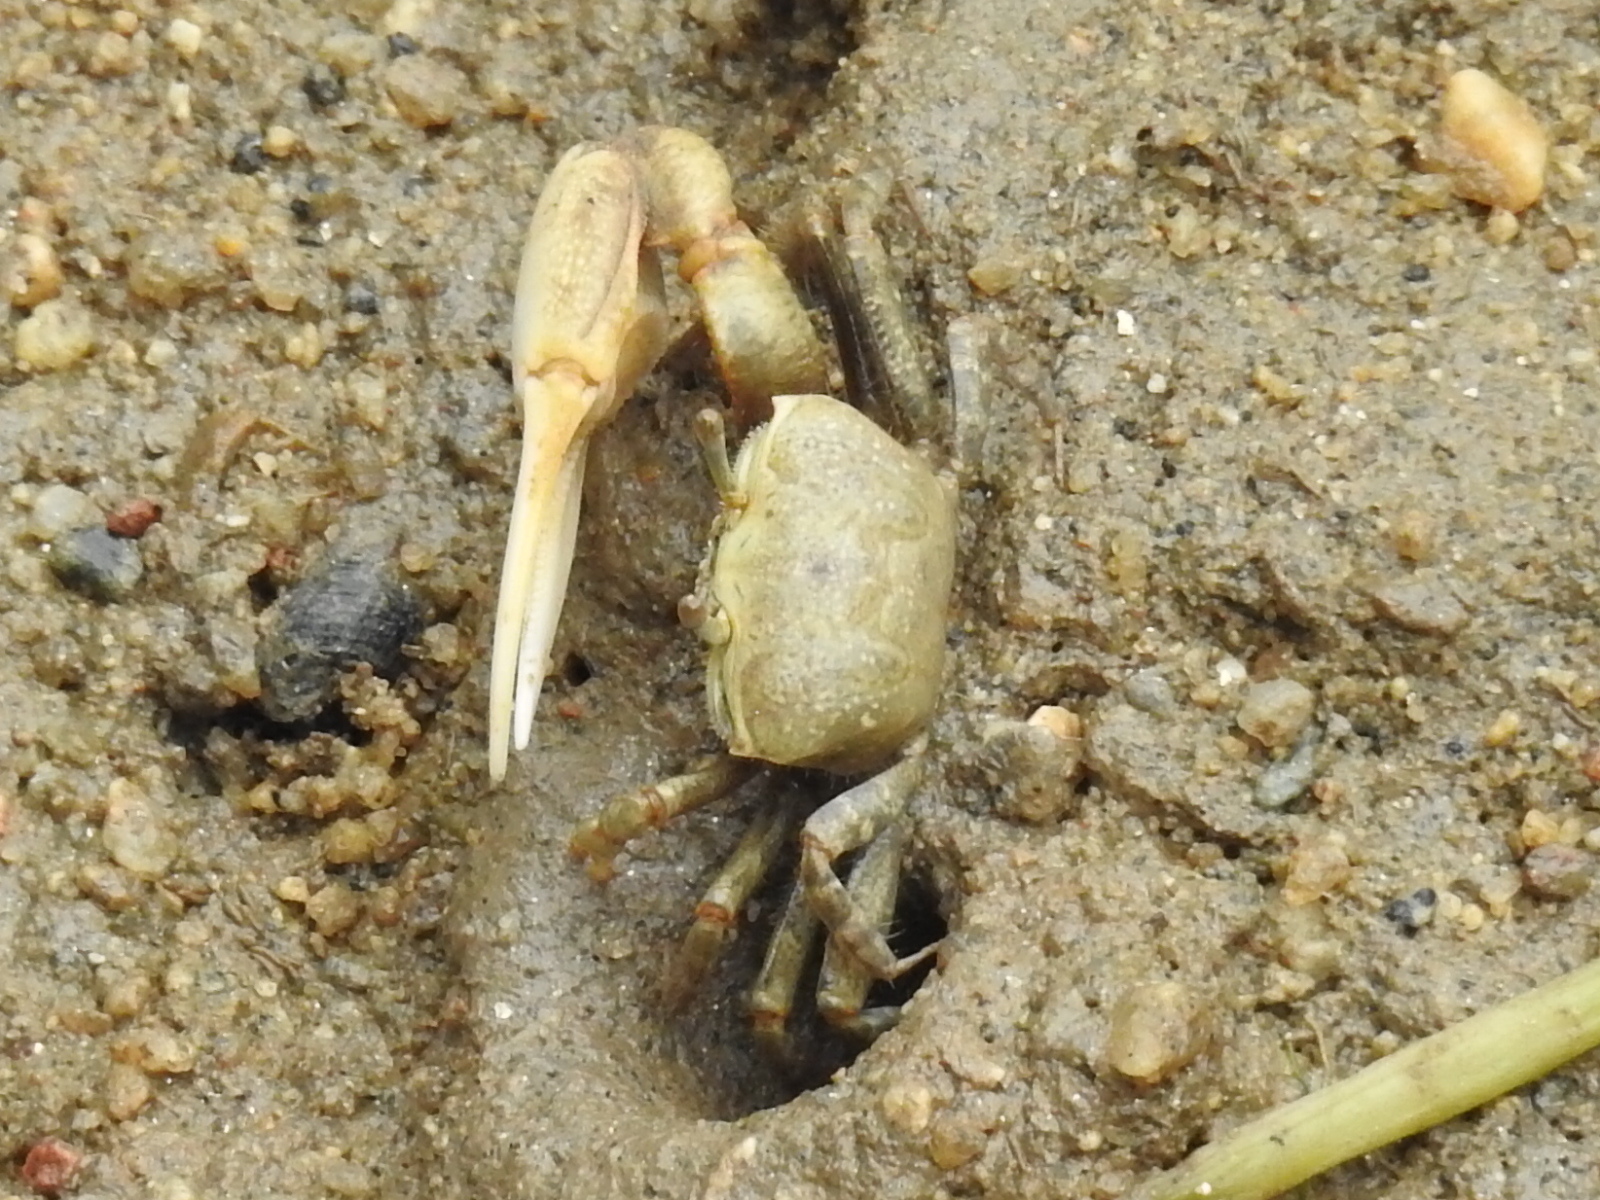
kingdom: Animalia
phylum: Arthropoda
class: Malacostraca
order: Decapoda
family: Ocypodidae
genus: Leptuca
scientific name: Leptuca crenulata
